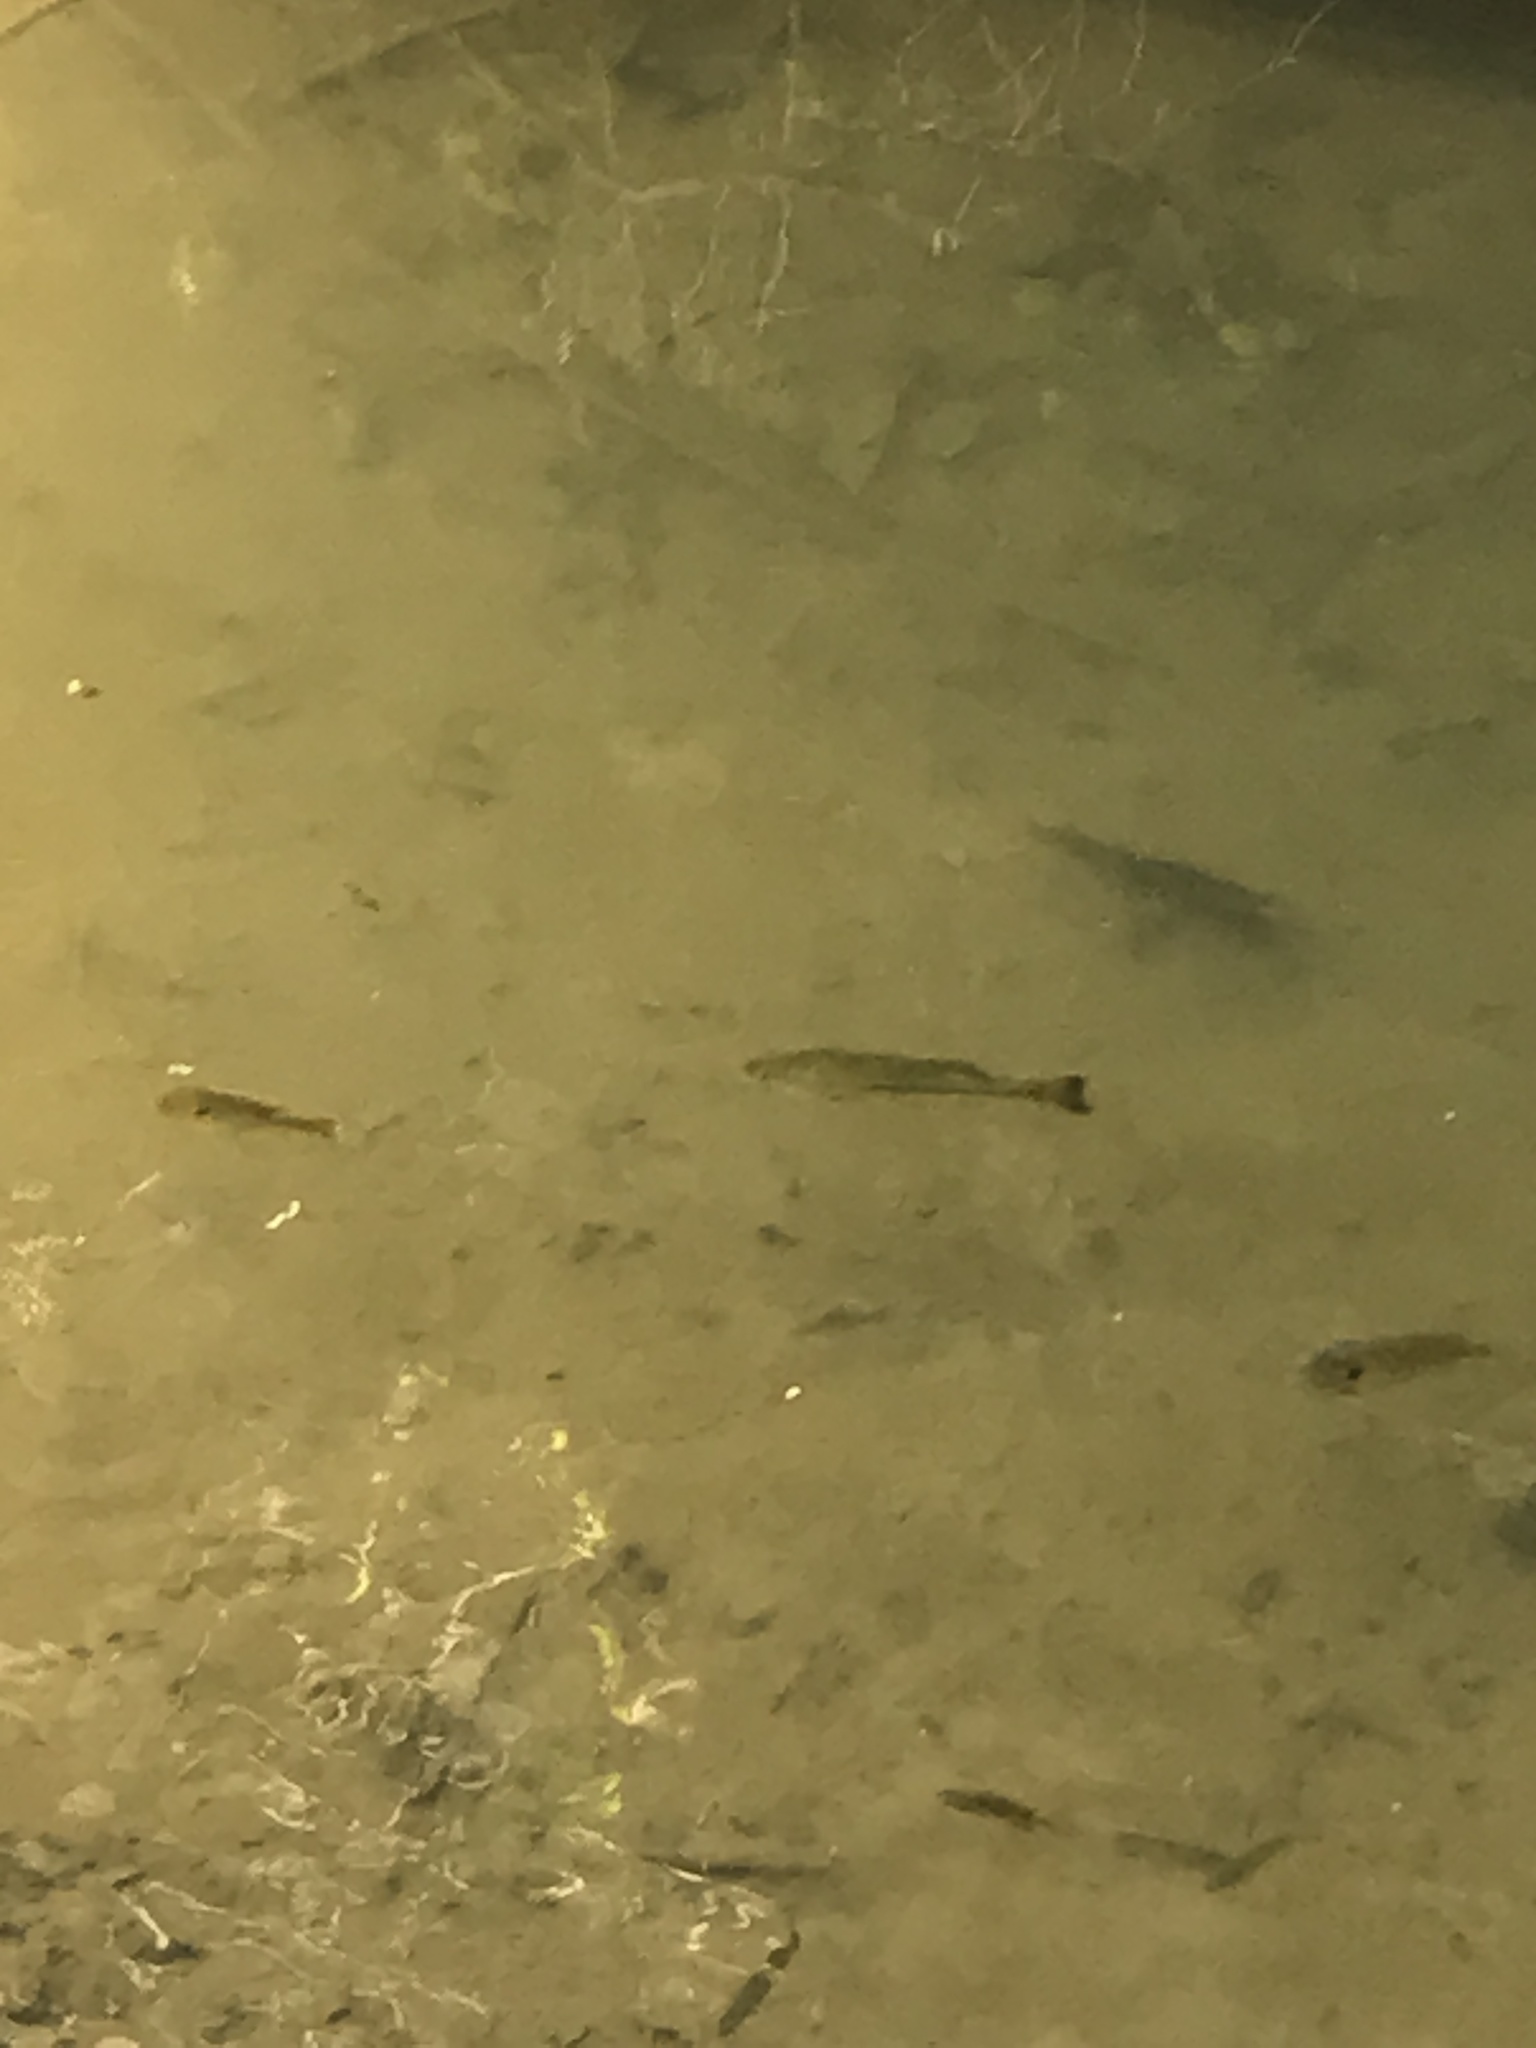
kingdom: Animalia
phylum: Chordata
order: Perciformes
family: Centrarchidae
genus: Lepomis
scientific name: Lepomis
